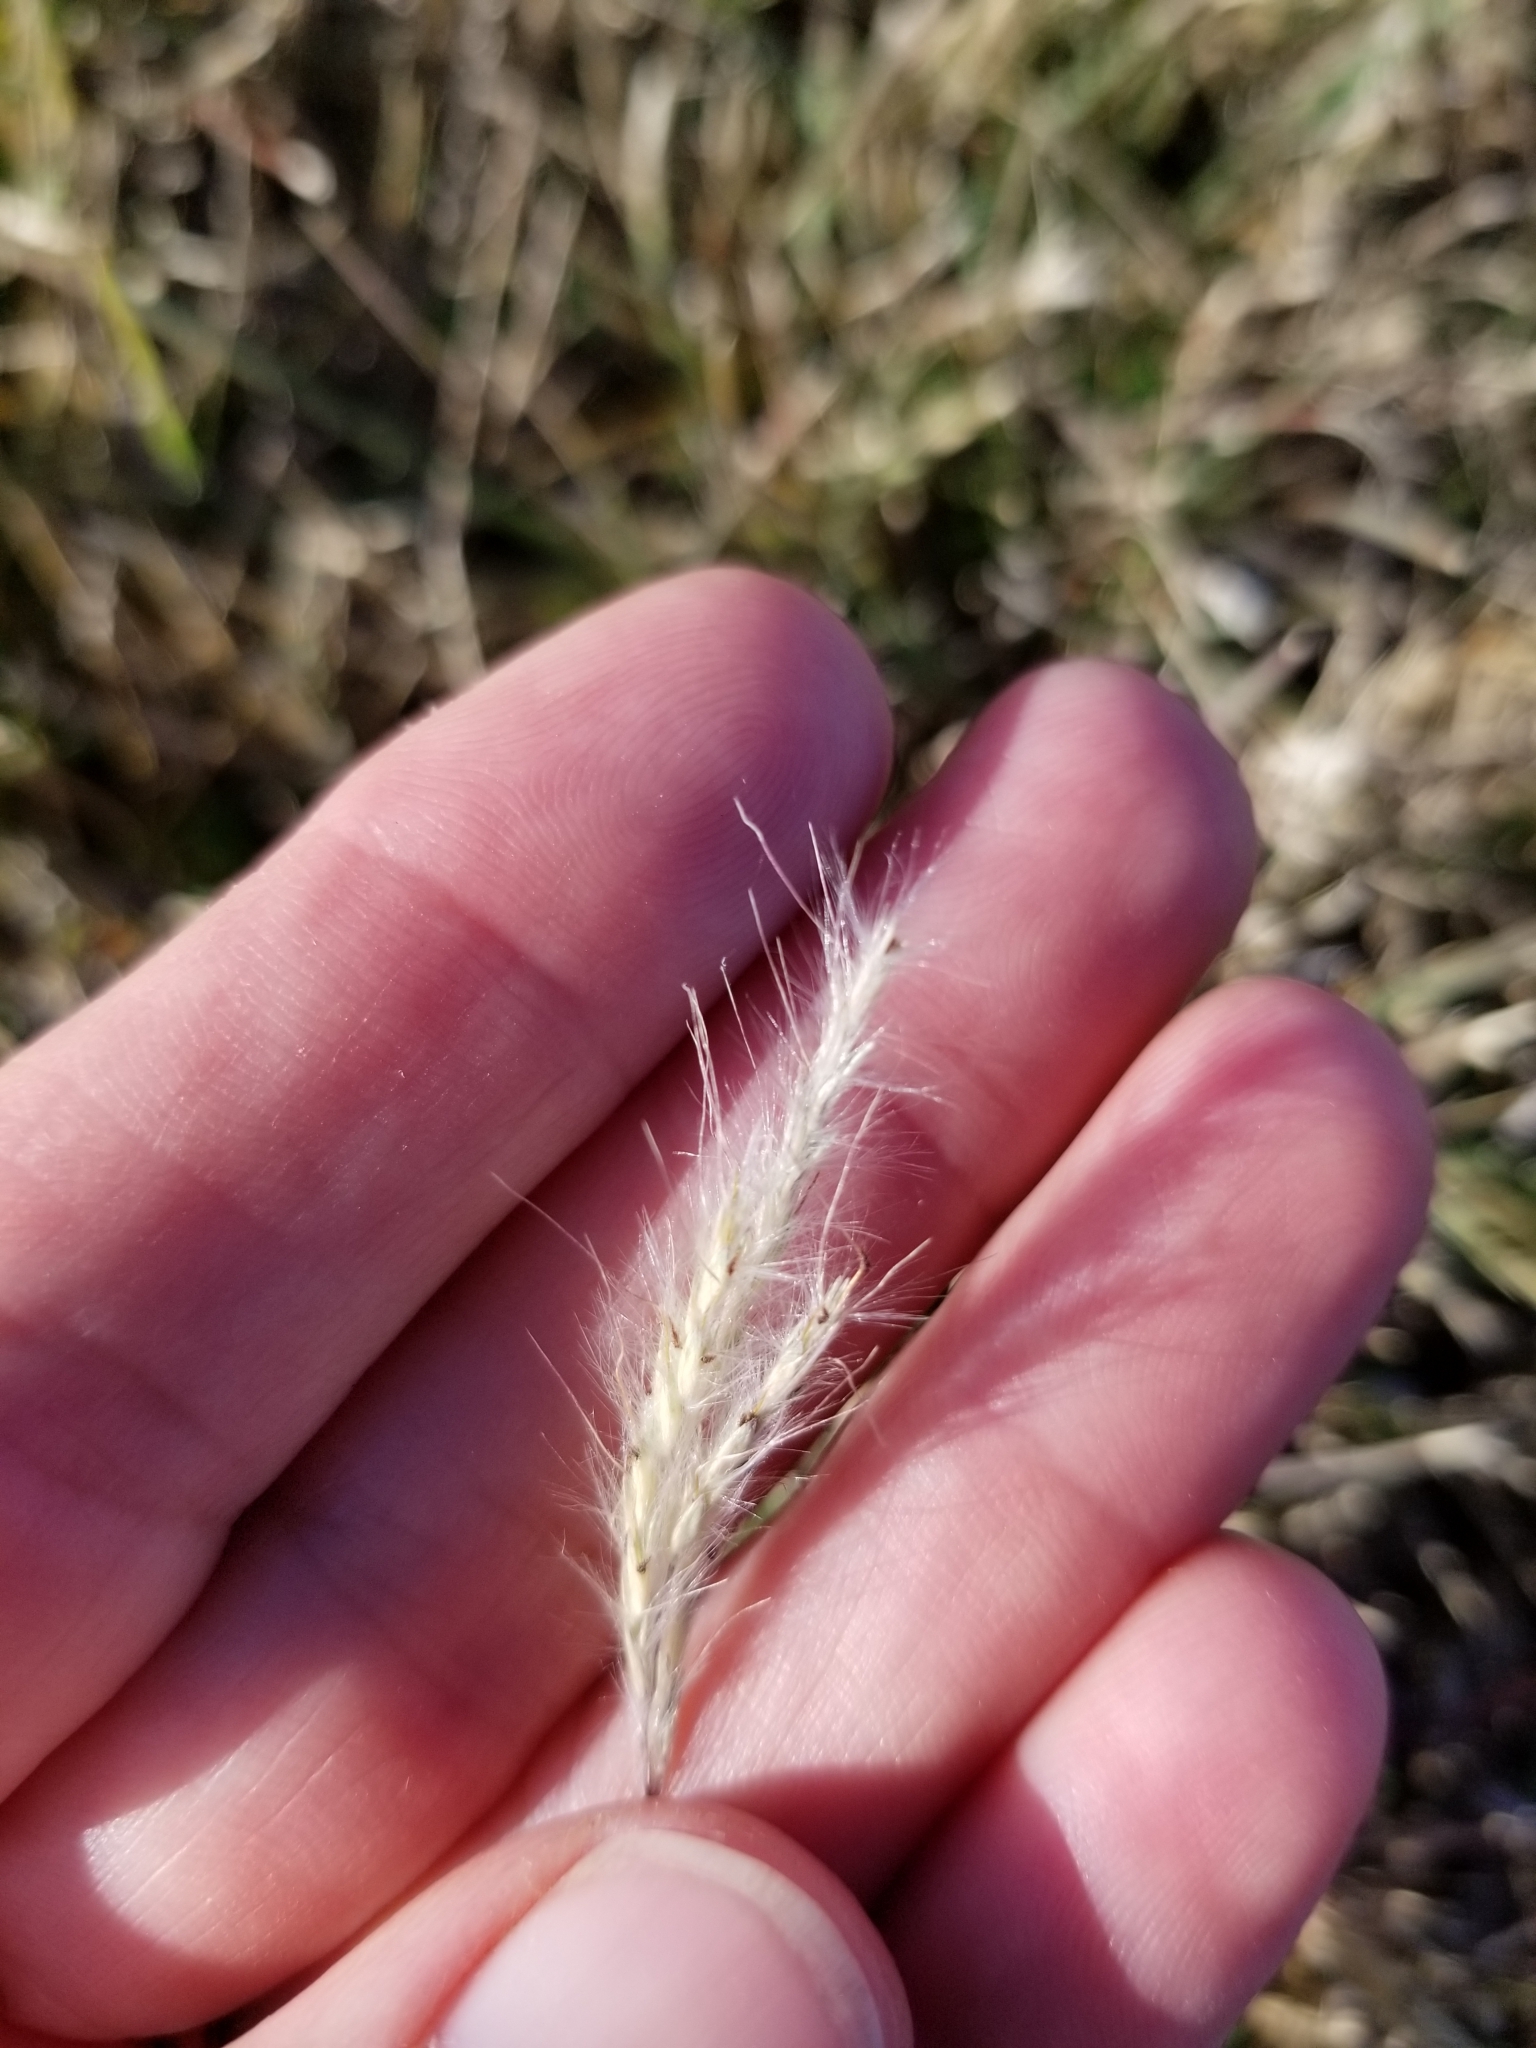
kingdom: Plantae
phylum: Tracheophyta
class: Liliopsida
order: Poales
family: Poaceae
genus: Bothriochloa
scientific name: Bothriochloa torreyana
